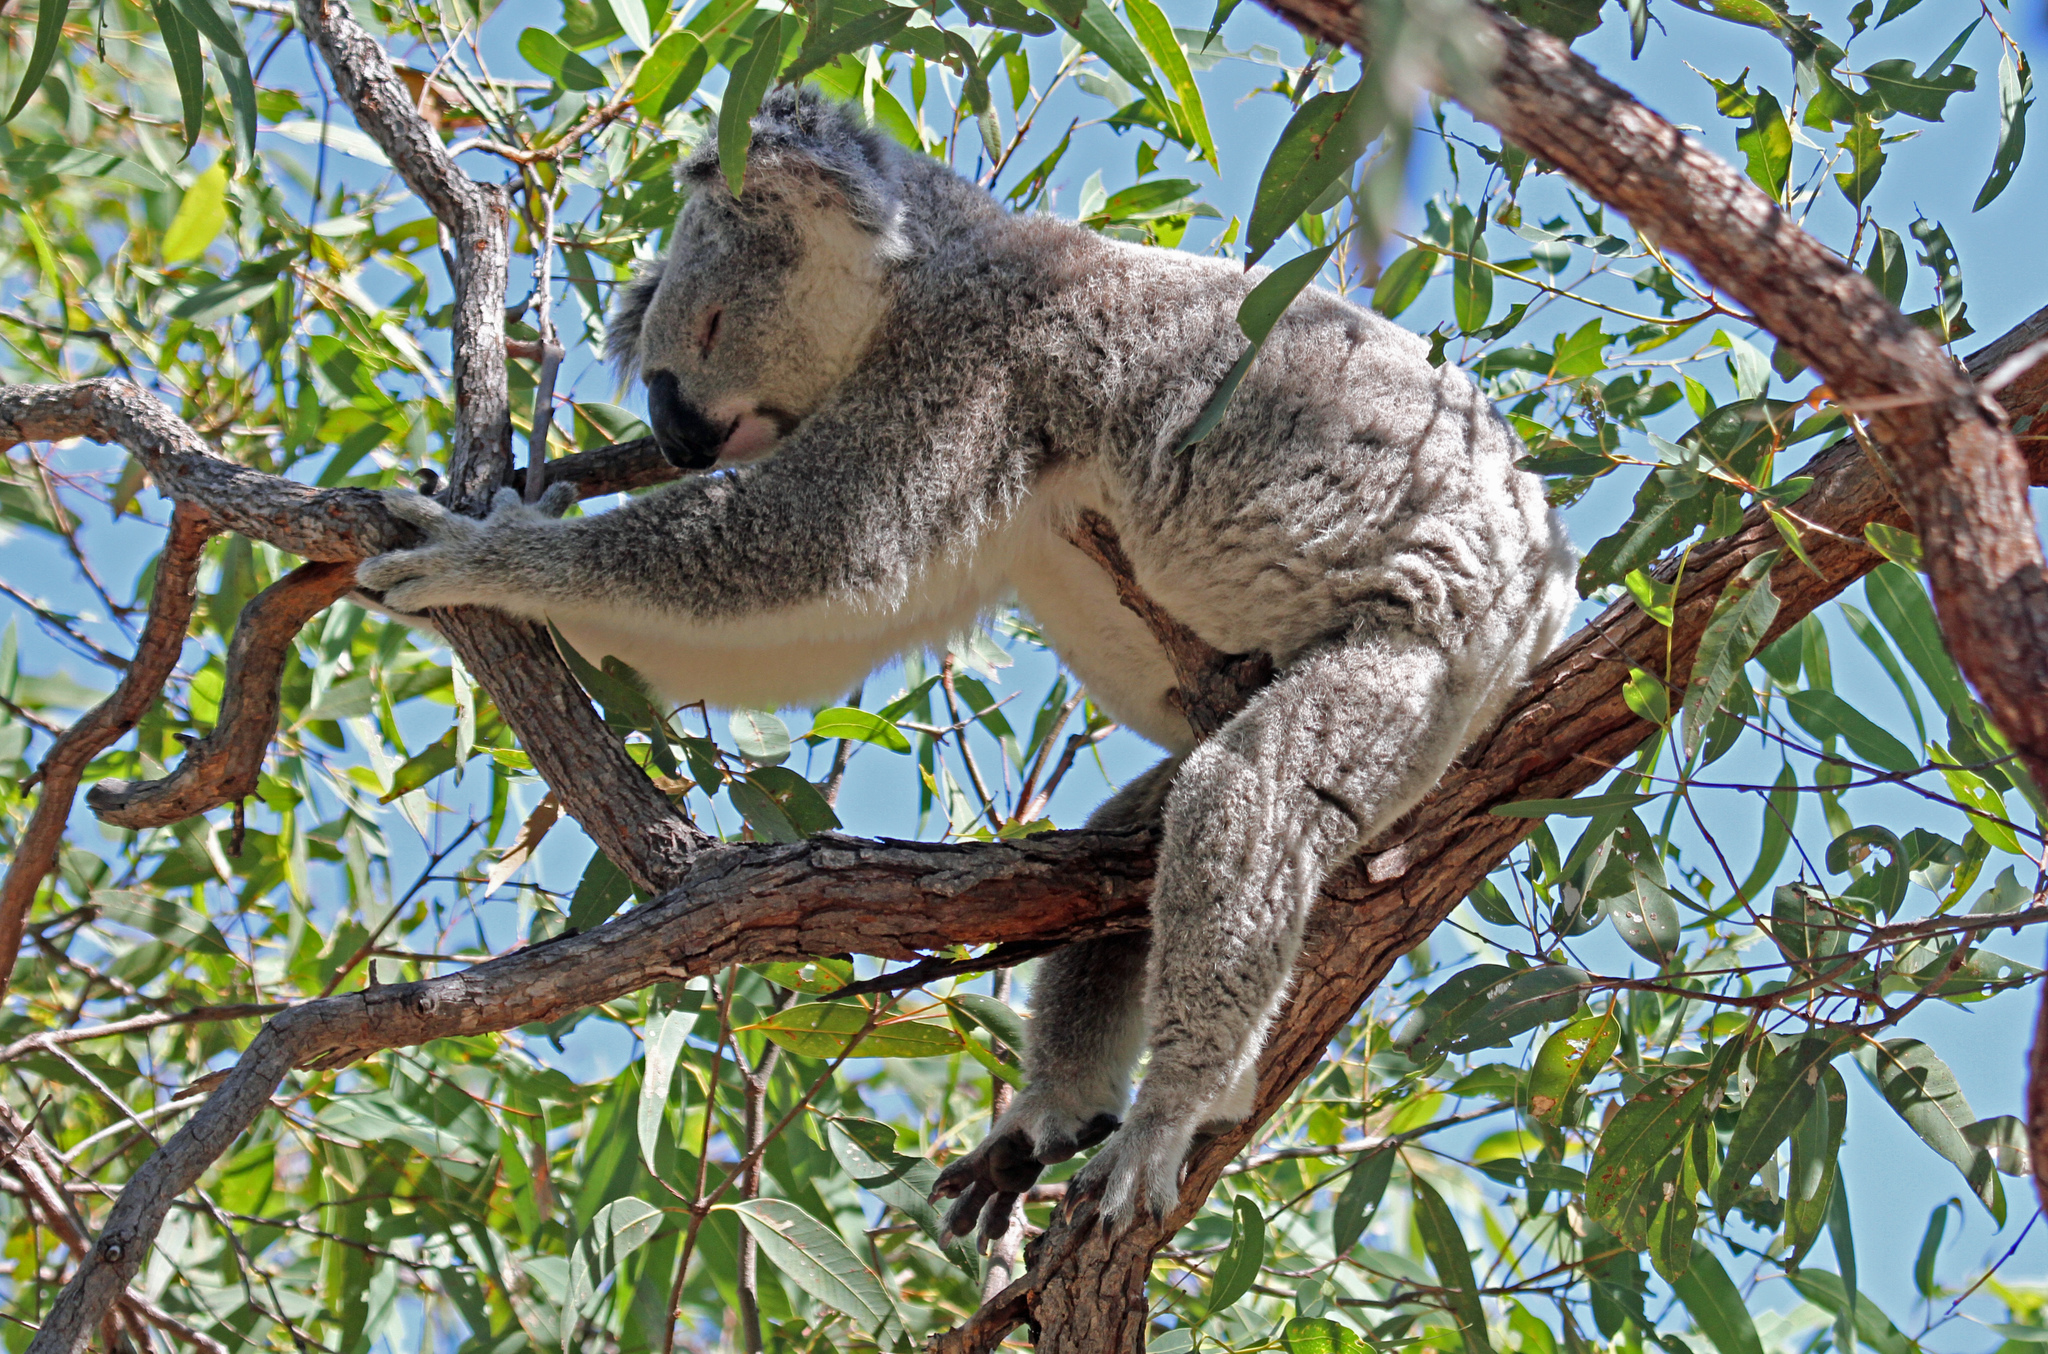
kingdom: Animalia
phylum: Chordata
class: Mammalia
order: Diprotodontia
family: Phascolarctidae
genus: Phascolarctos
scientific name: Phascolarctos cinereus
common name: Koala
